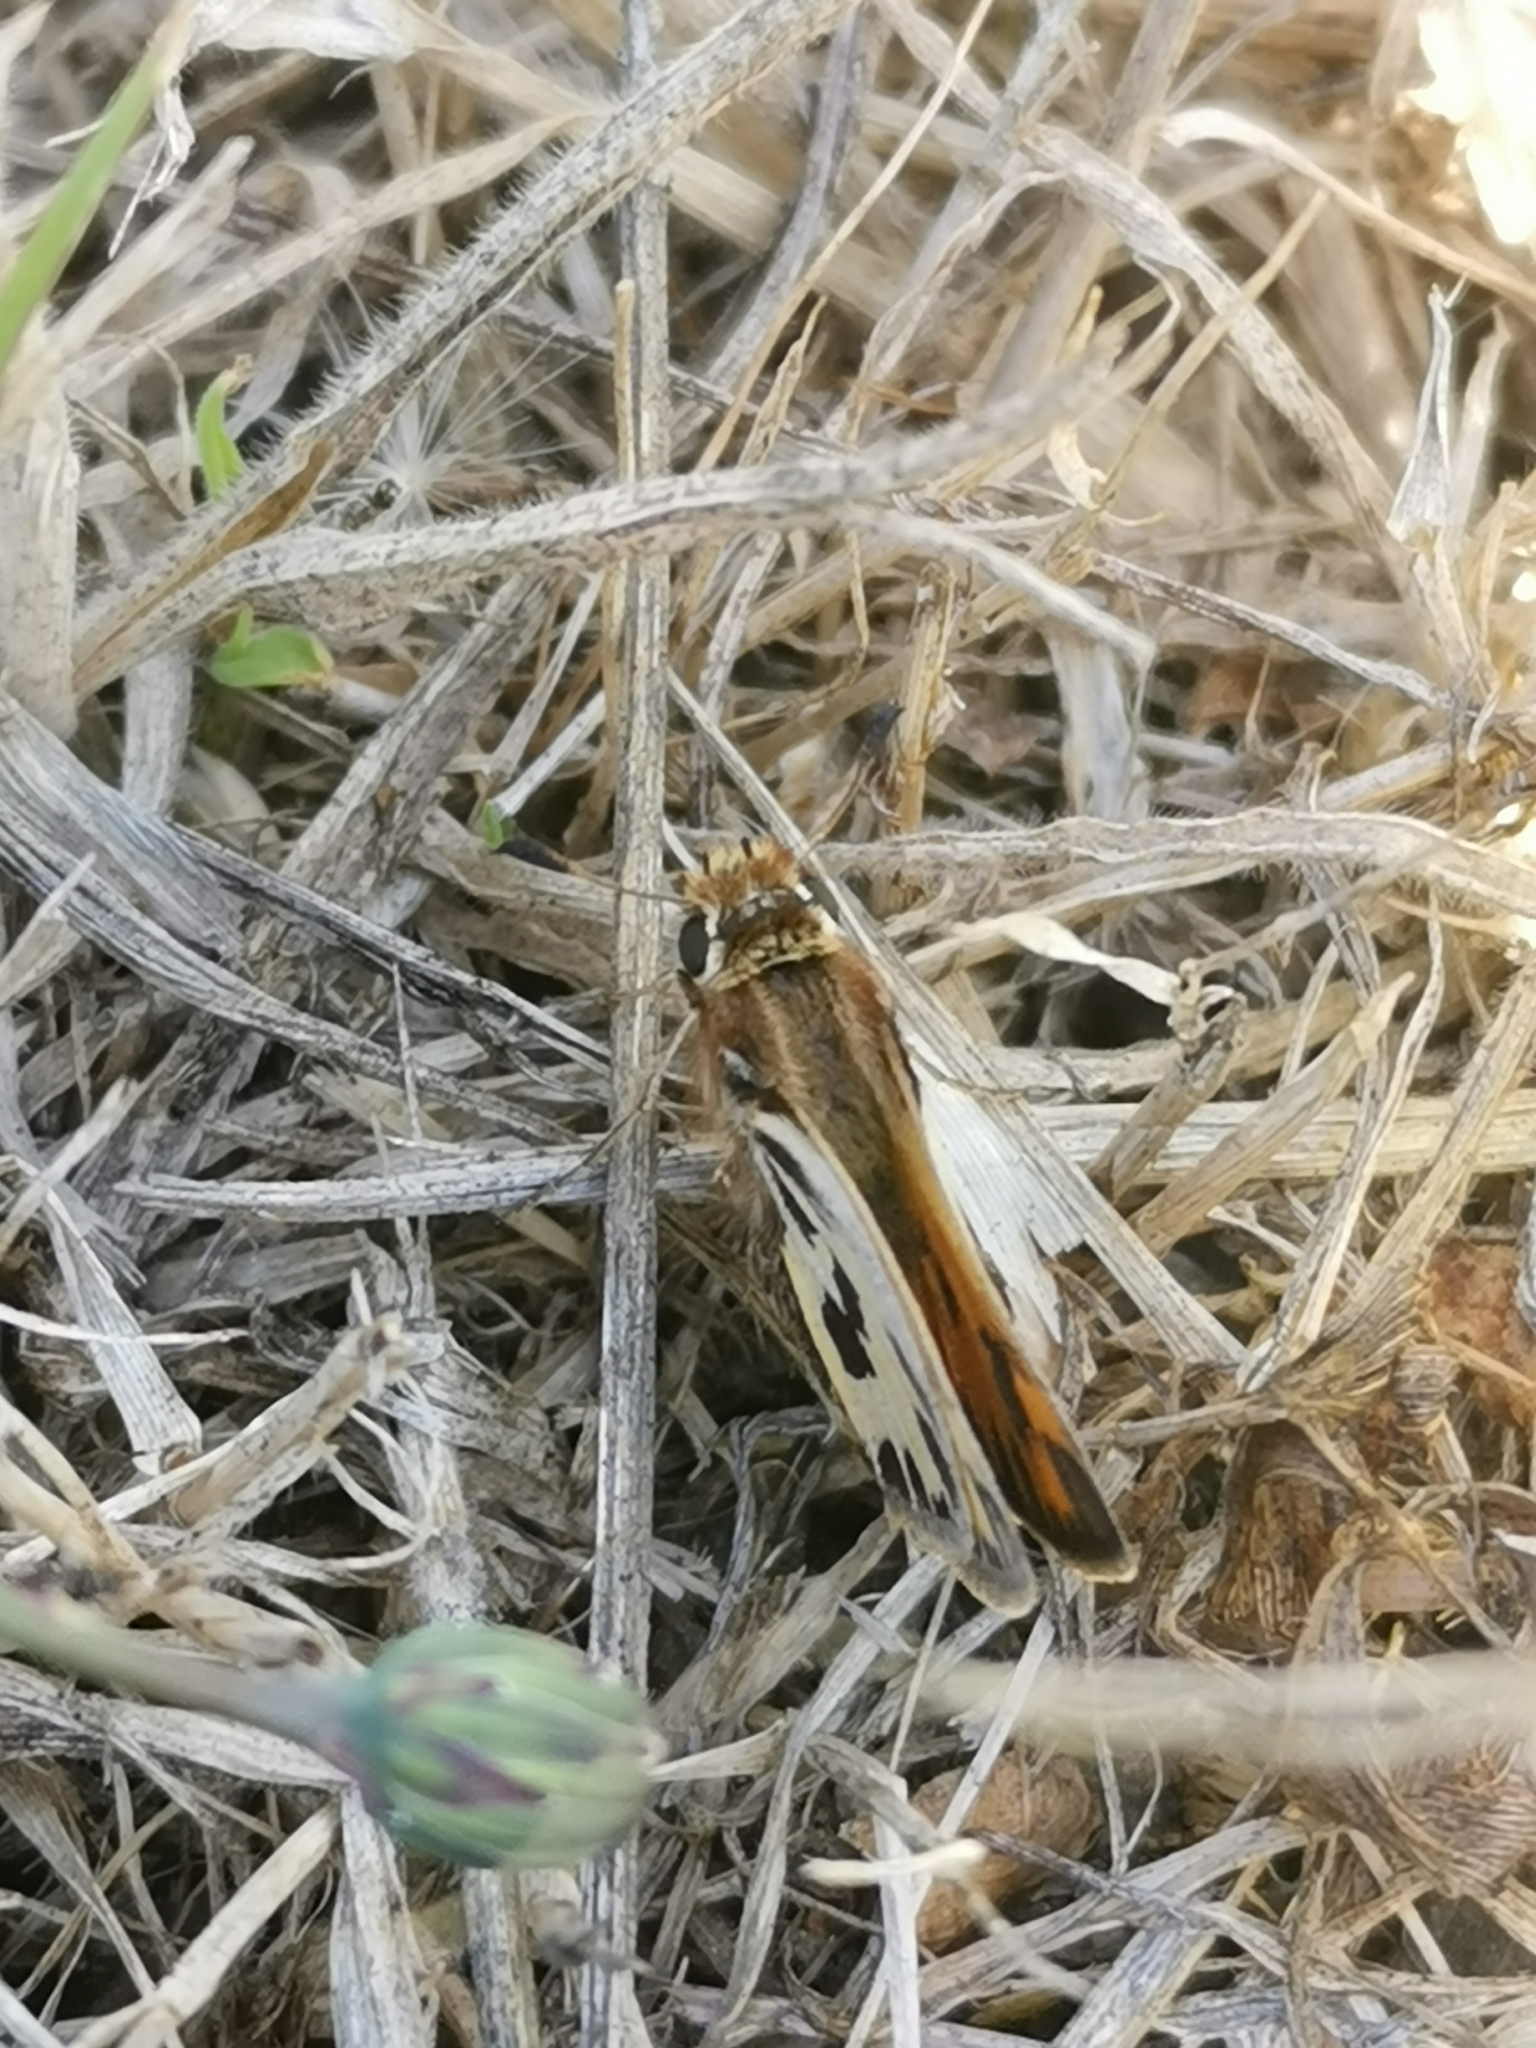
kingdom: Animalia
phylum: Arthropoda
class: Insecta
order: Lepidoptera
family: Hesperiidae
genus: Hylephila
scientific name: Hylephila fasciolata
